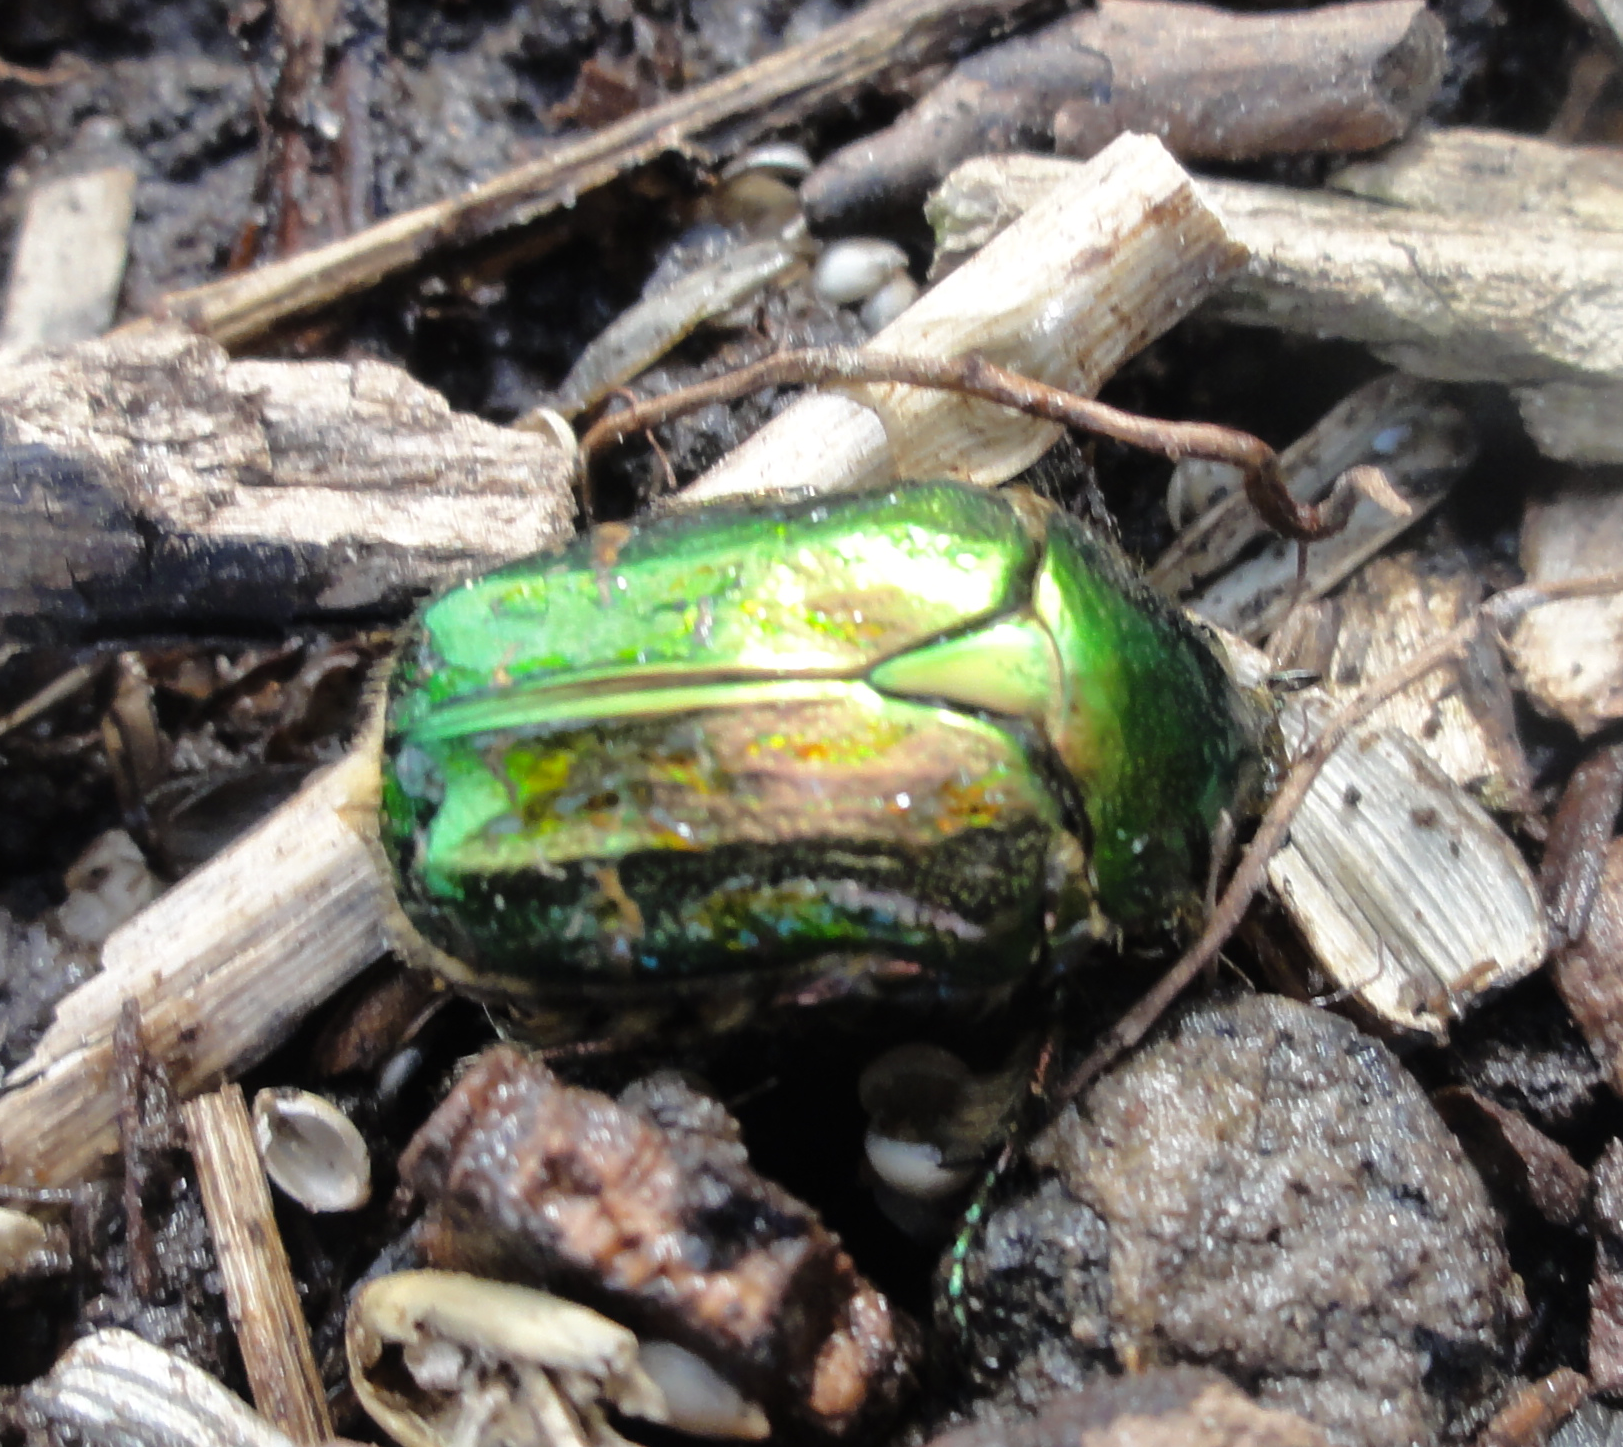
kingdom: Animalia
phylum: Arthropoda
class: Insecta
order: Coleoptera
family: Scarabaeidae
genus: Cetonia
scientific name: Cetonia aurata
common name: Rose chafer
